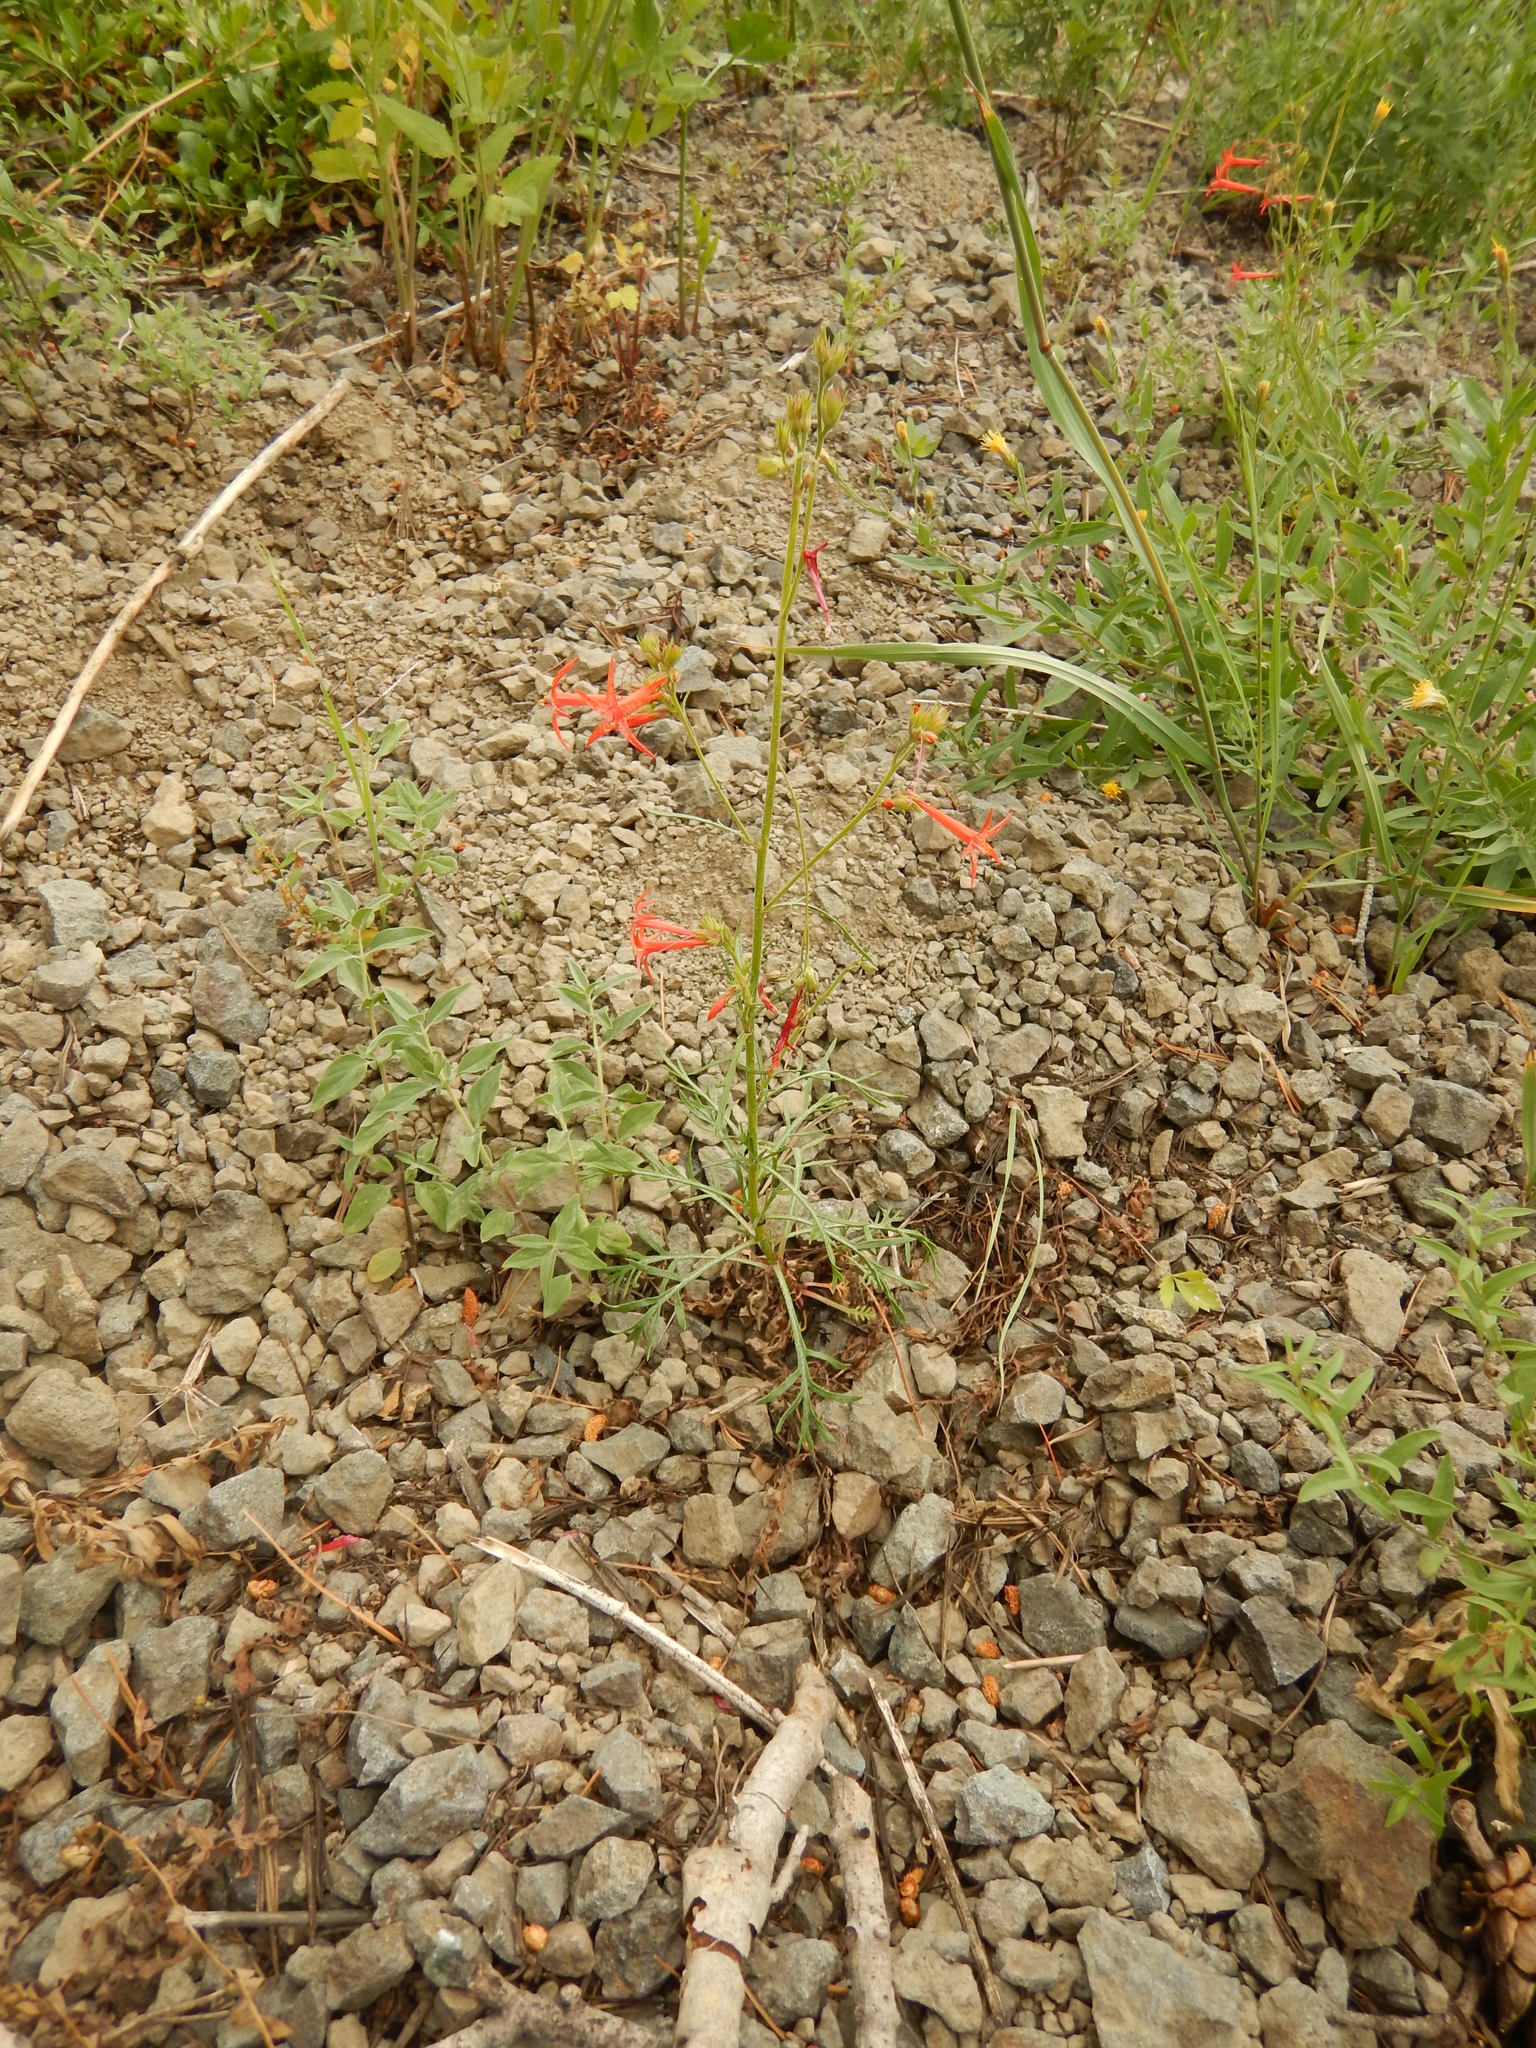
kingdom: Plantae
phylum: Tracheophyta
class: Magnoliopsida
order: Ericales
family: Polemoniaceae
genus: Ipomopsis
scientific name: Ipomopsis aggregata
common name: Scarlet gilia
